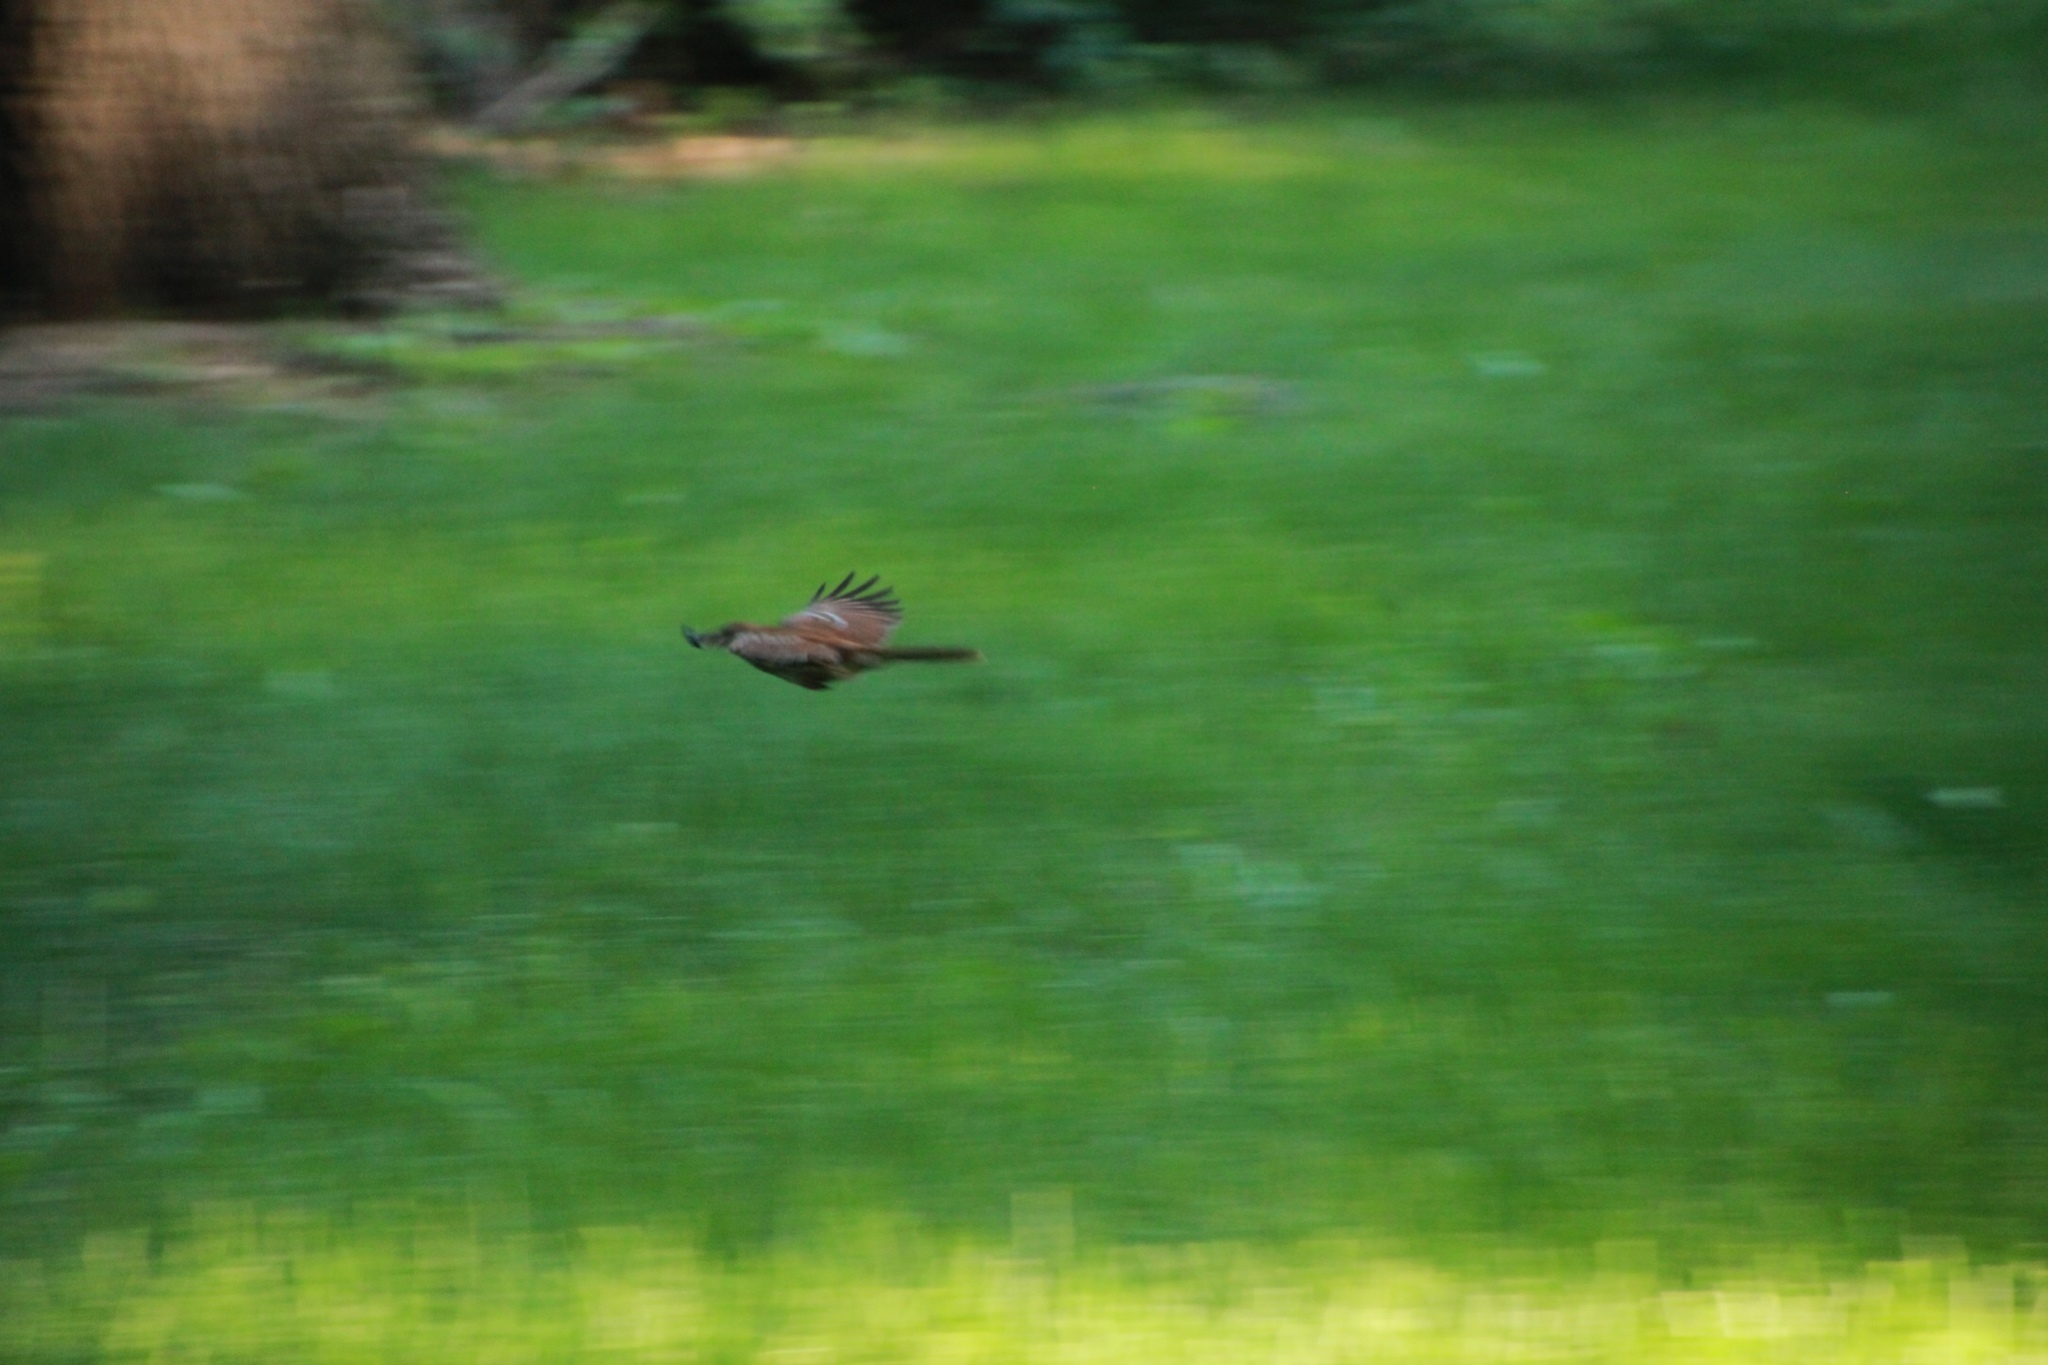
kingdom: Animalia
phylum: Chordata
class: Aves
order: Passeriformes
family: Mimidae
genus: Toxostoma
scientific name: Toxostoma rufum
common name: Brown thrasher
